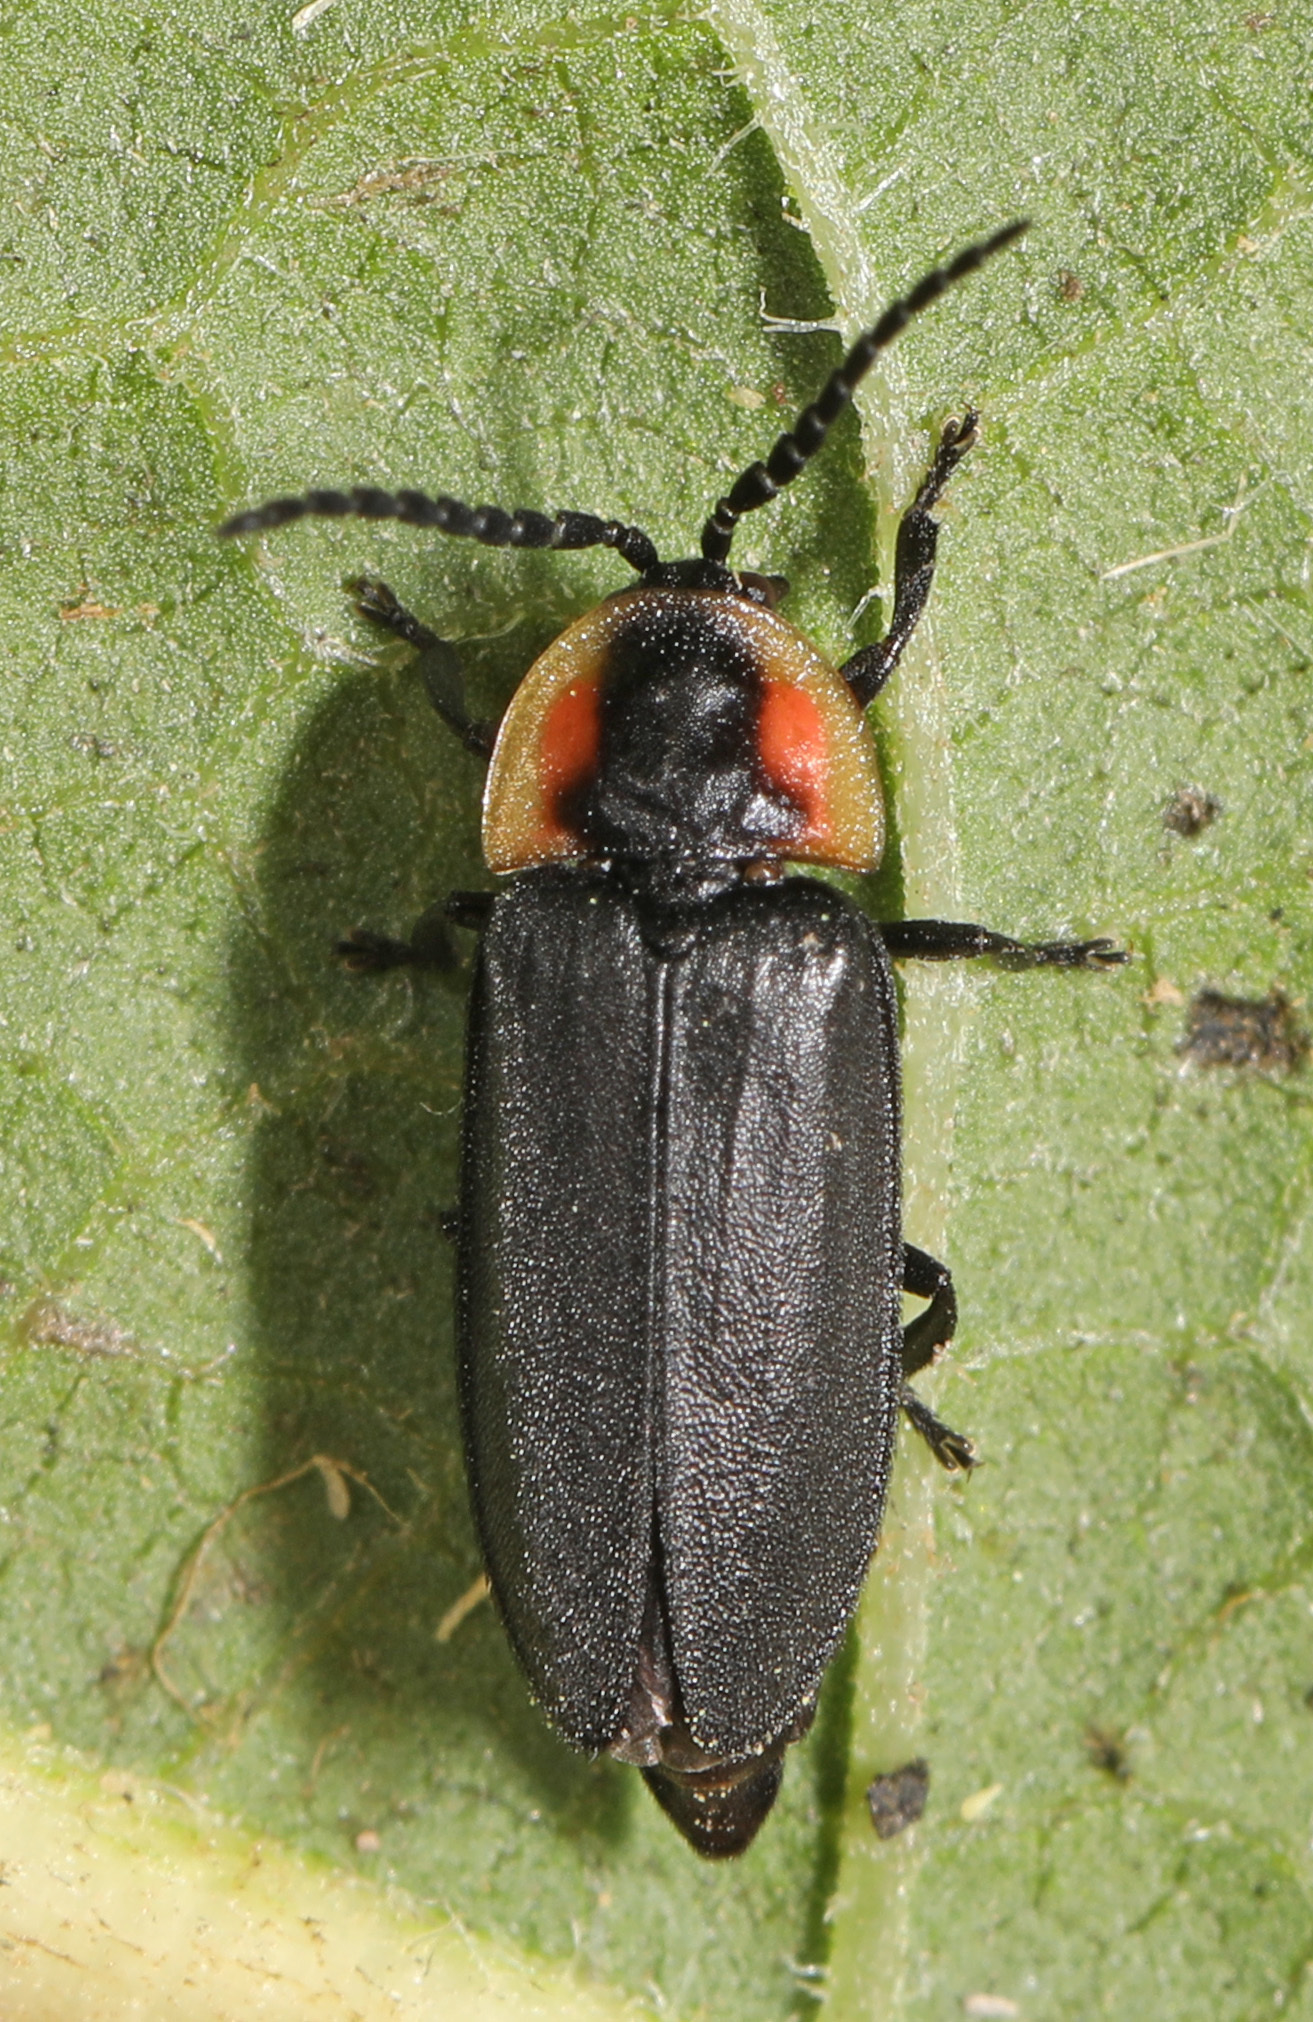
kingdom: Animalia
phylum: Arthropoda
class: Insecta
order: Coleoptera
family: Lampyridae
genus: Pyropyga
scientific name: Pyropyga decipiens
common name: Sneaky elf
